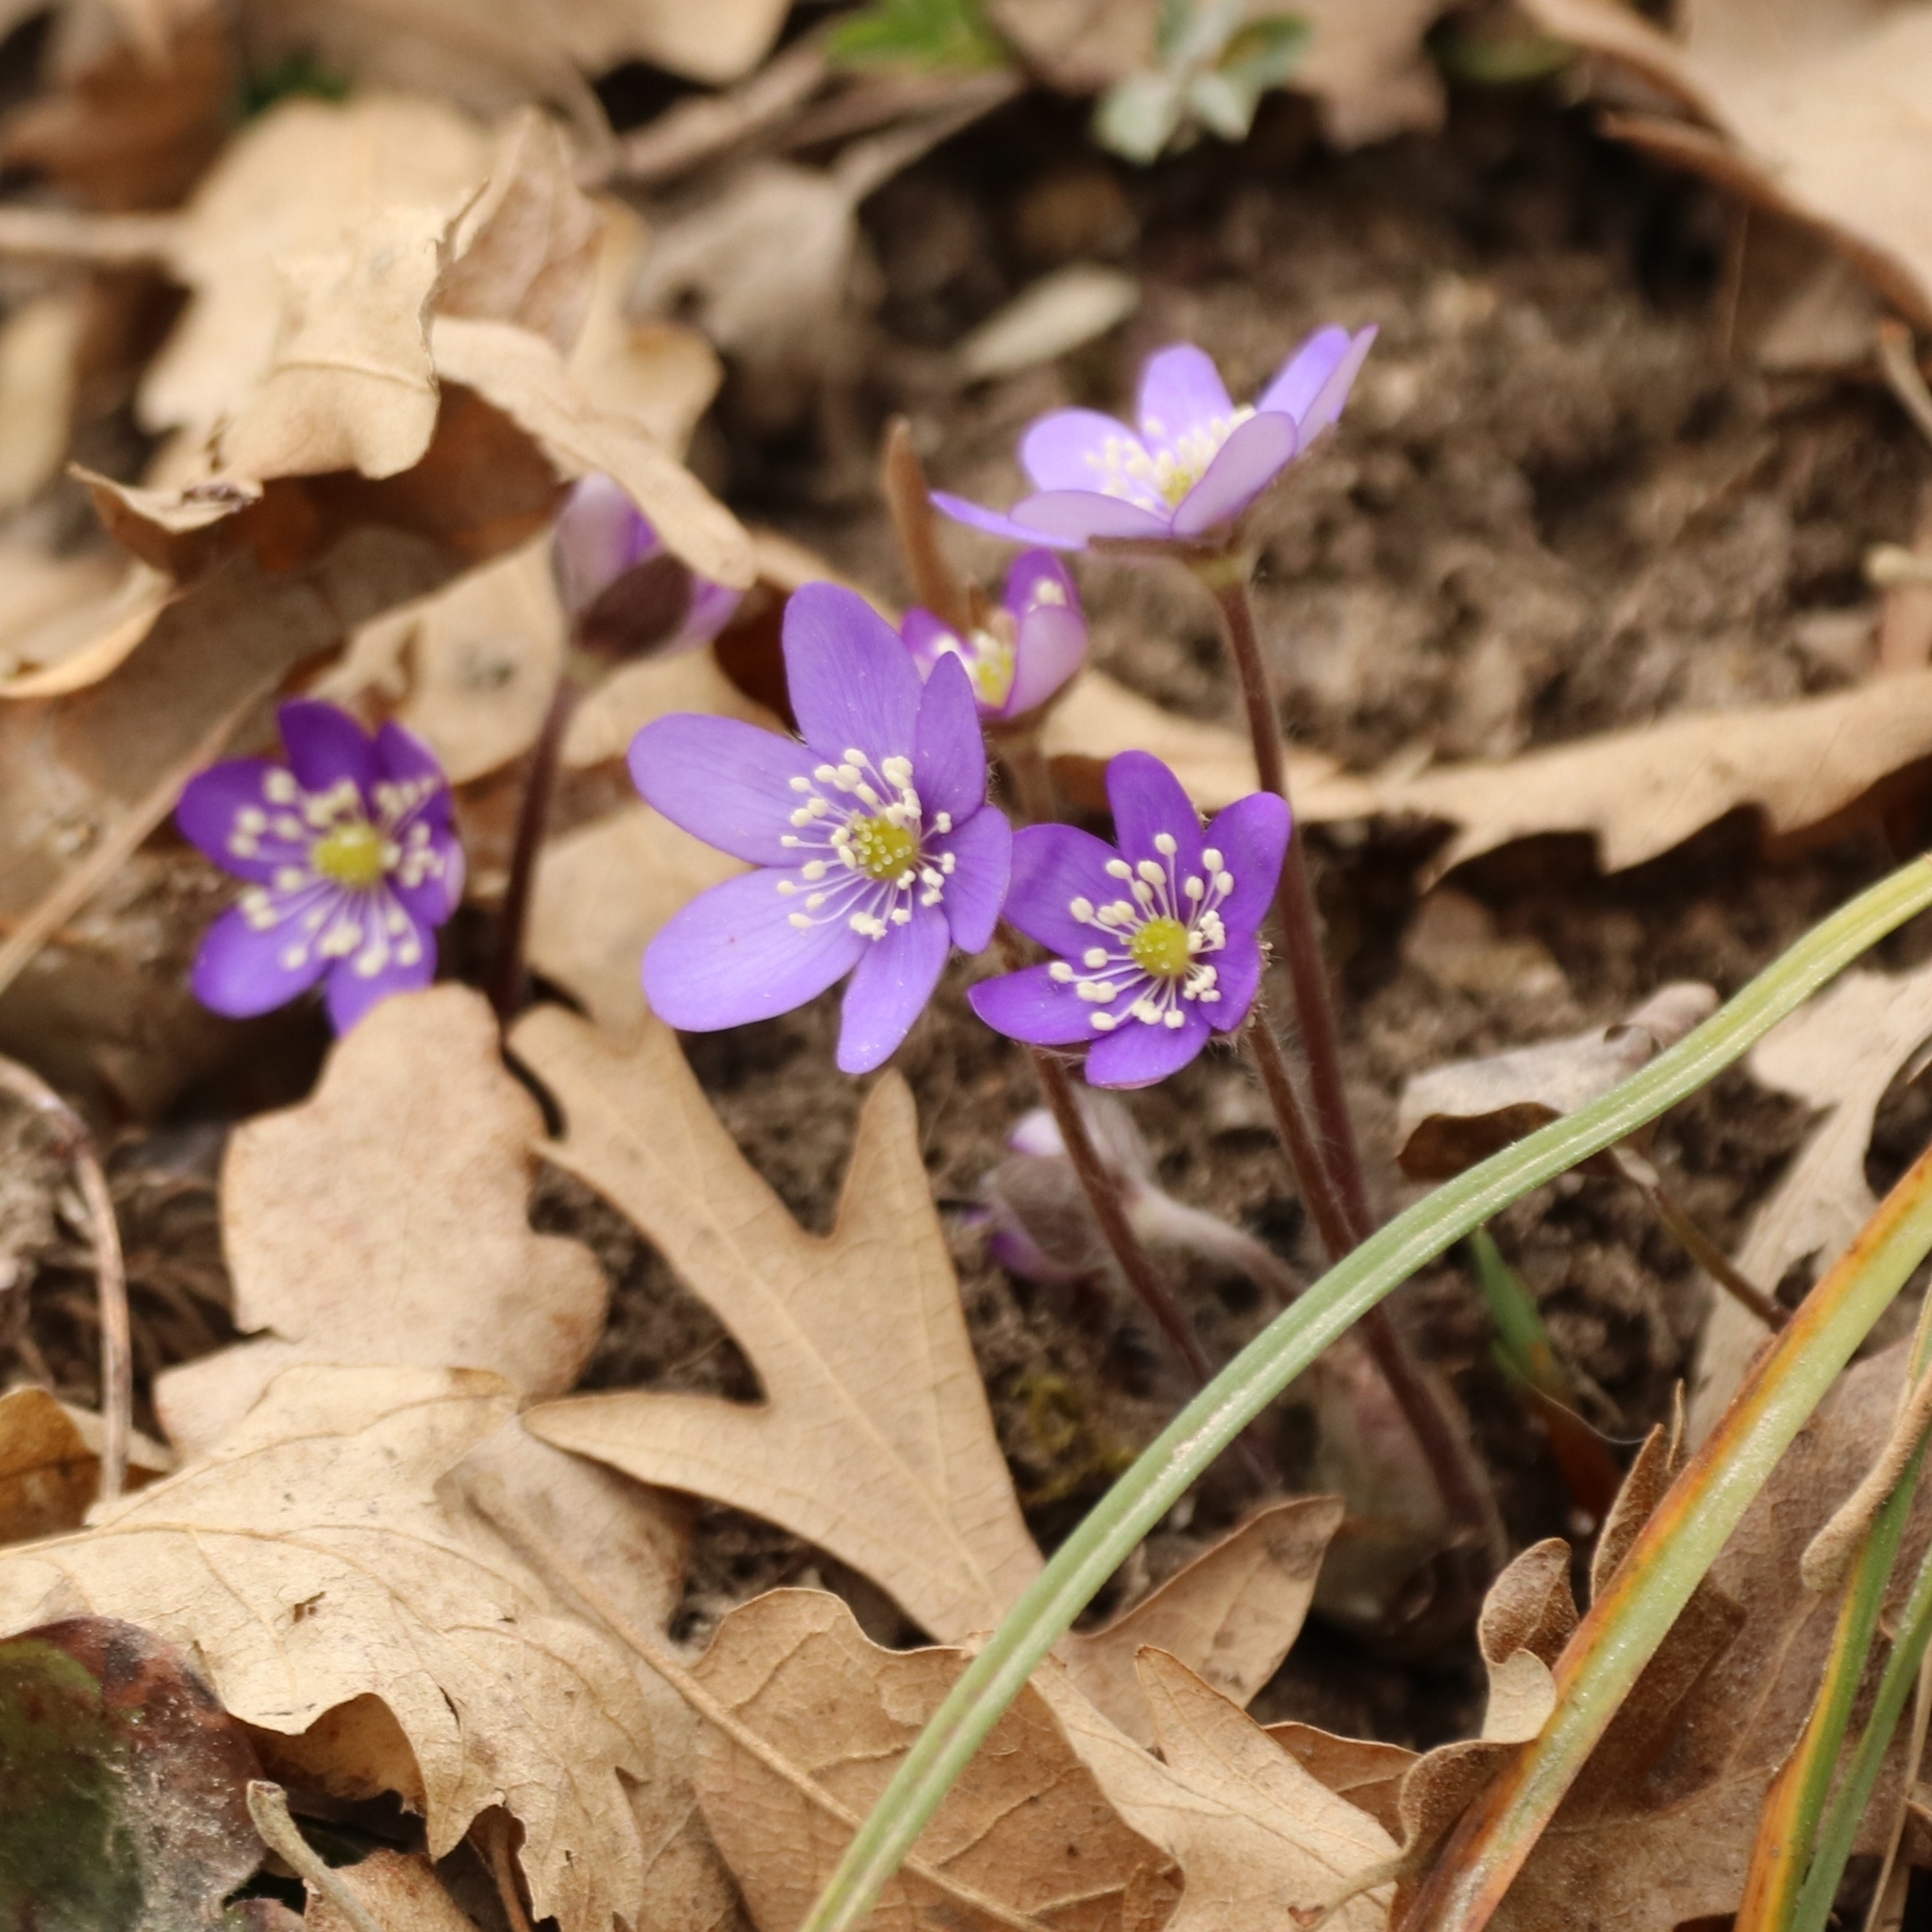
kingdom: Plantae
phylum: Tracheophyta
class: Magnoliopsida
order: Ranunculales
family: Ranunculaceae
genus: Hepatica
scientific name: Hepatica nobilis
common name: Liverleaf
